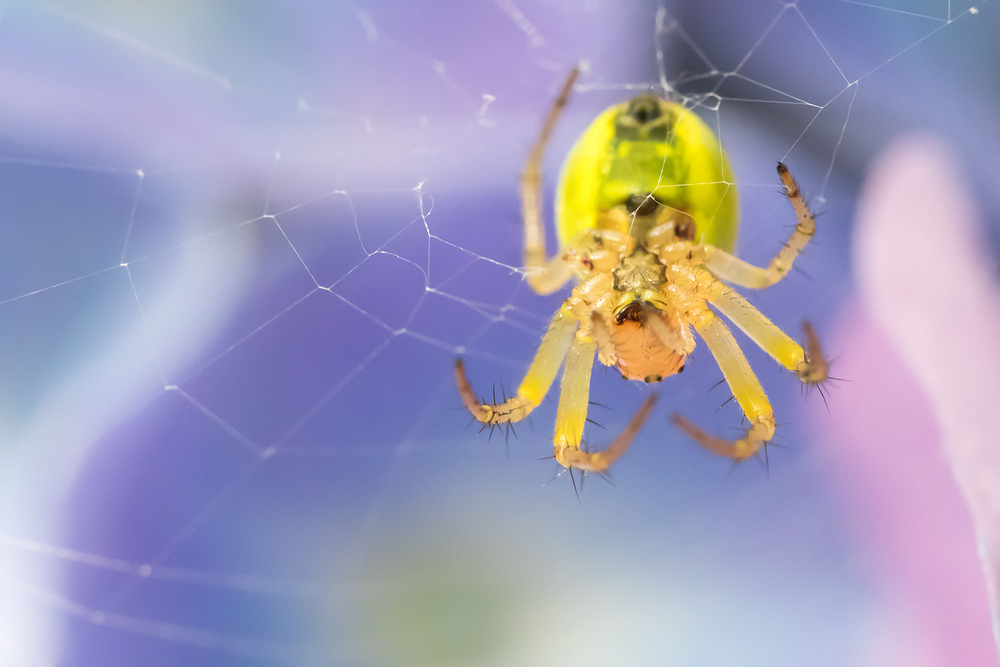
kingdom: Animalia
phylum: Arthropoda
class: Arachnida
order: Araneae
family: Araneidae
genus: Araniella
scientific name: Araniella
